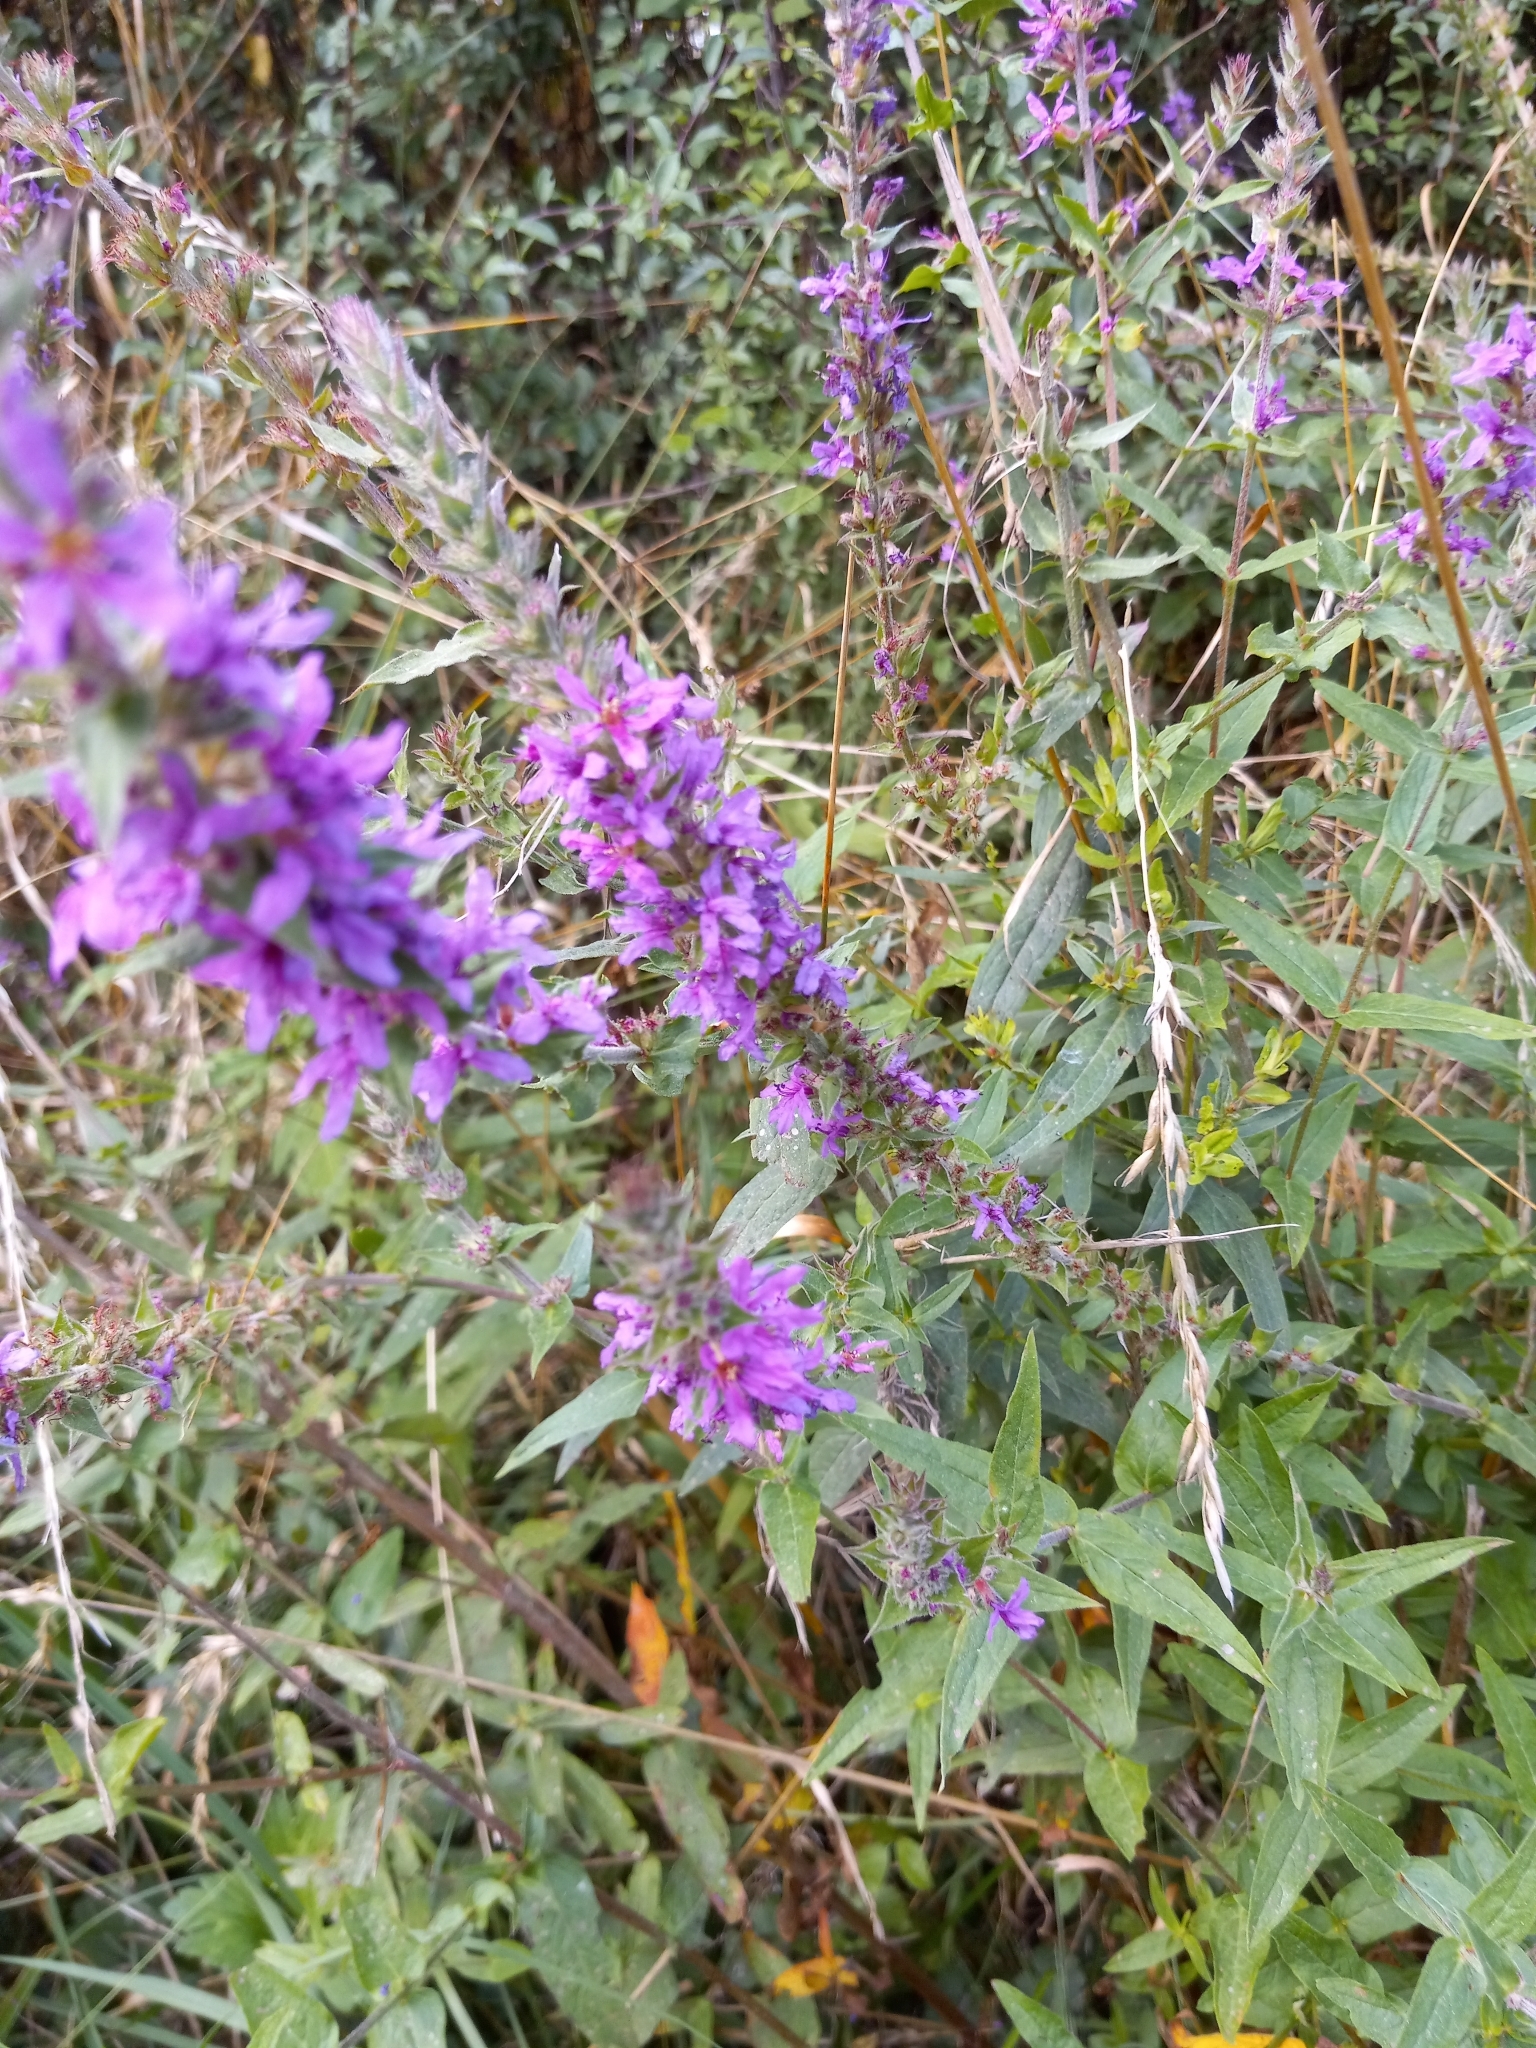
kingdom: Plantae
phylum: Tracheophyta
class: Magnoliopsida
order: Myrtales
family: Lythraceae
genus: Lythrum
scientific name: Lythrum salicaria
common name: Purple loosestrife
